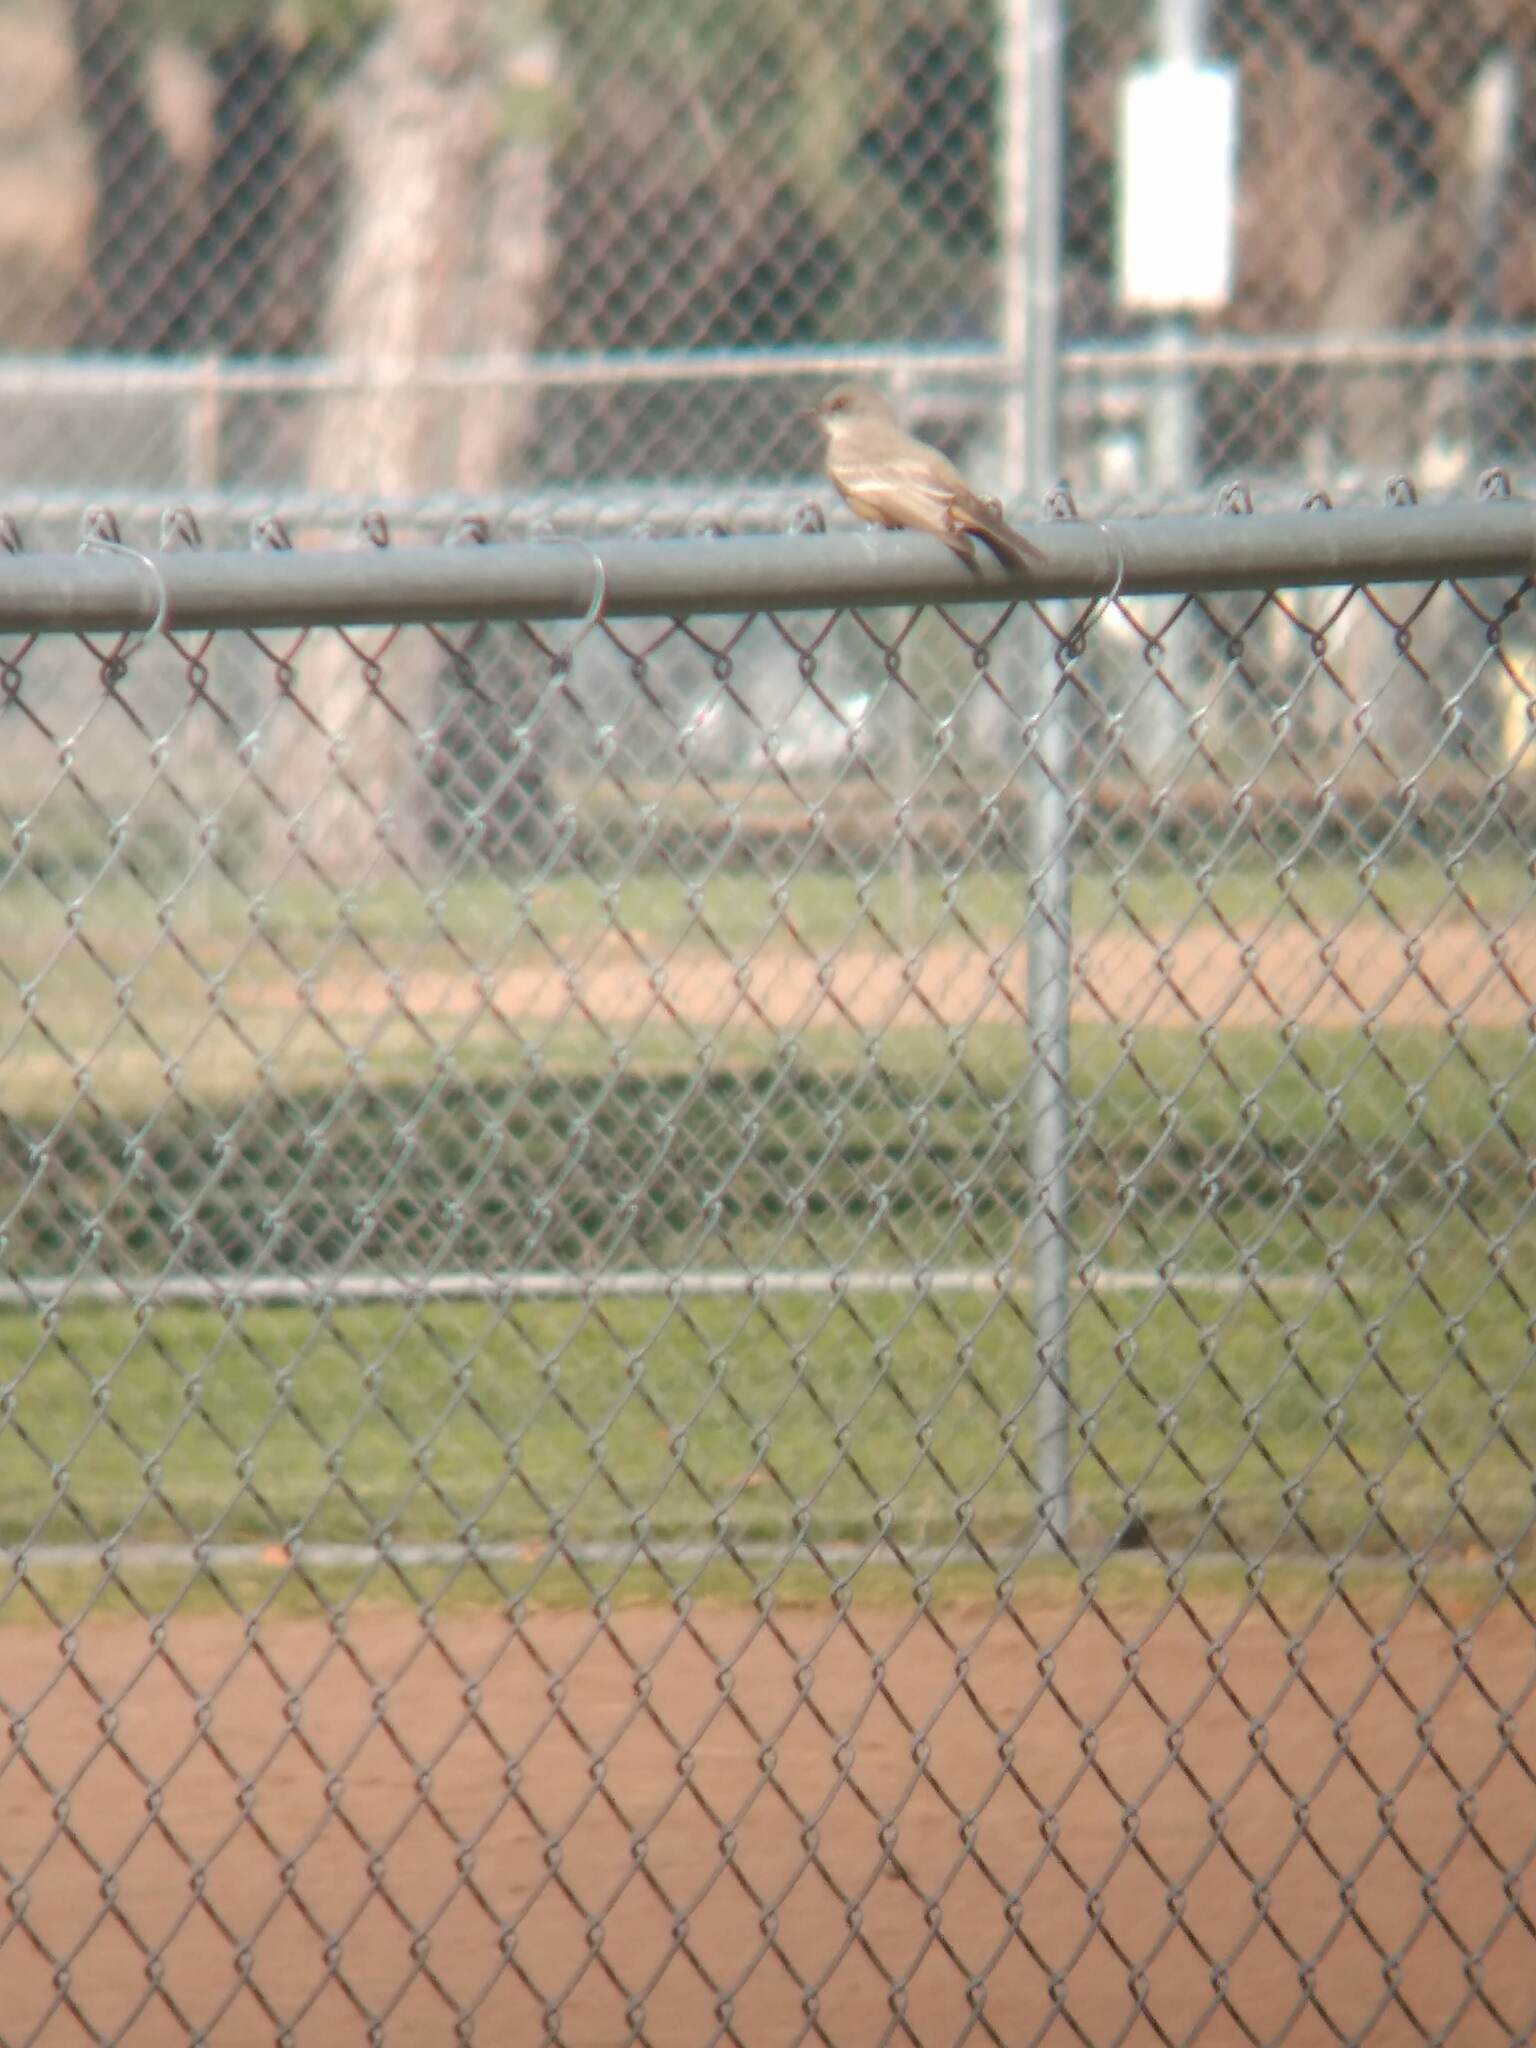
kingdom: Animalia
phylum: Chordata
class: Aves
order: Passeriformes
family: Tyrannidae
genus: Sayornis
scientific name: Sayornis saya
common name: Say's phoebe
